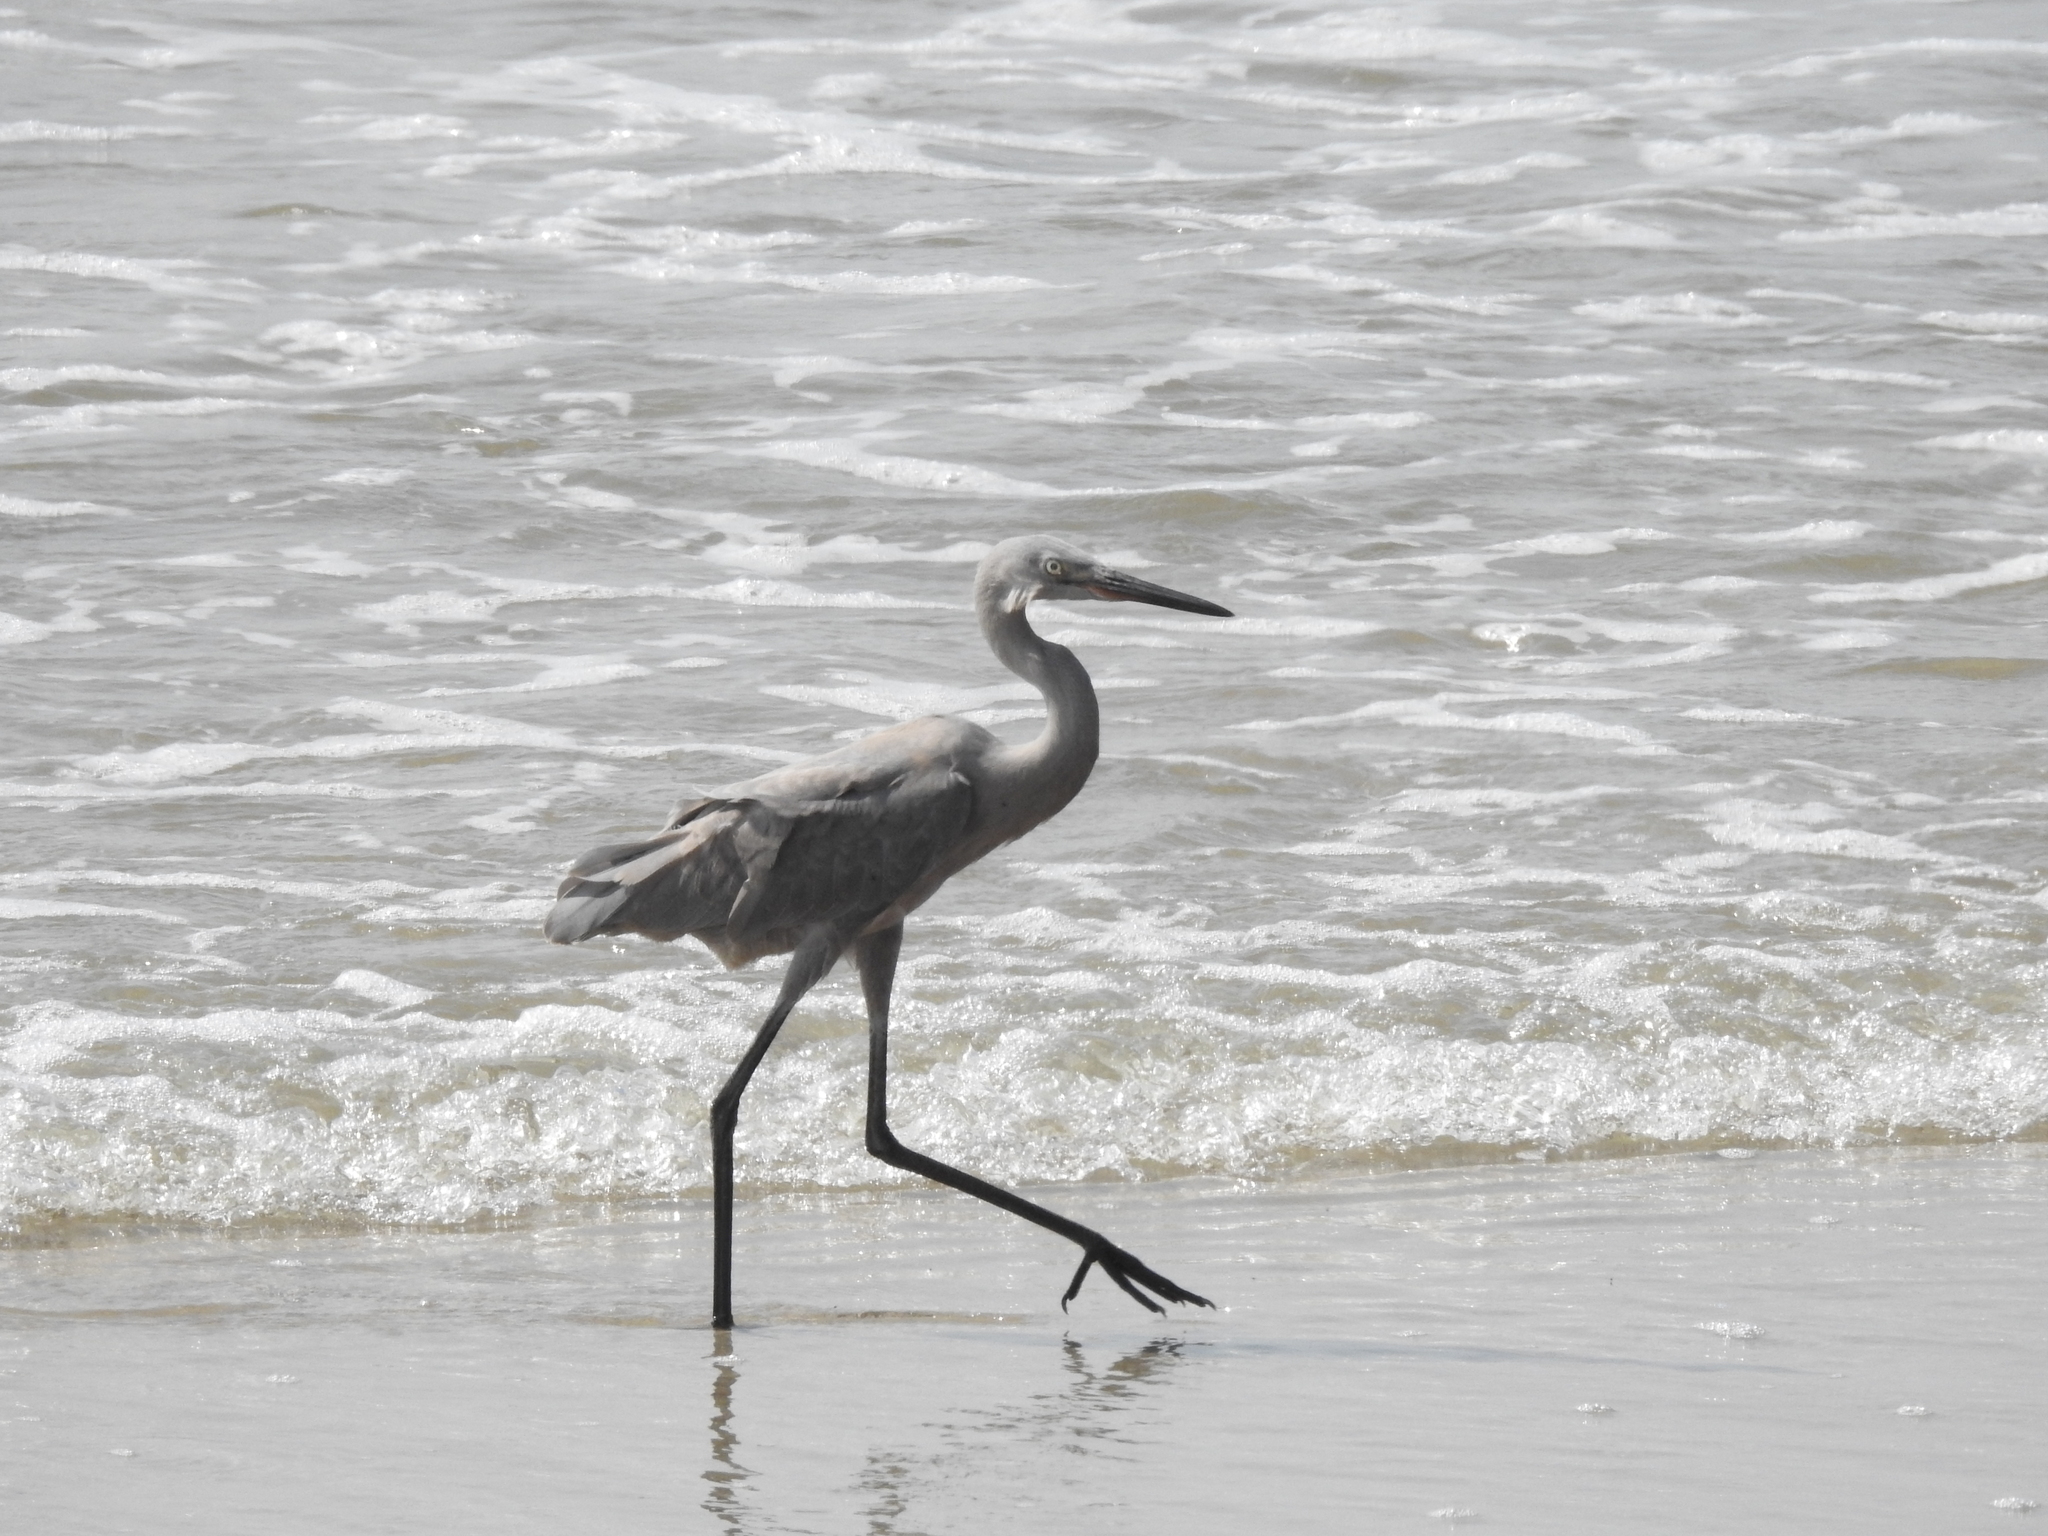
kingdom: Animalia
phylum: Chordata
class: Aves
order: Pelecaniformes
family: Ardeidae
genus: Egretta
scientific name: Egretta rufescens
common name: Reddish egret
